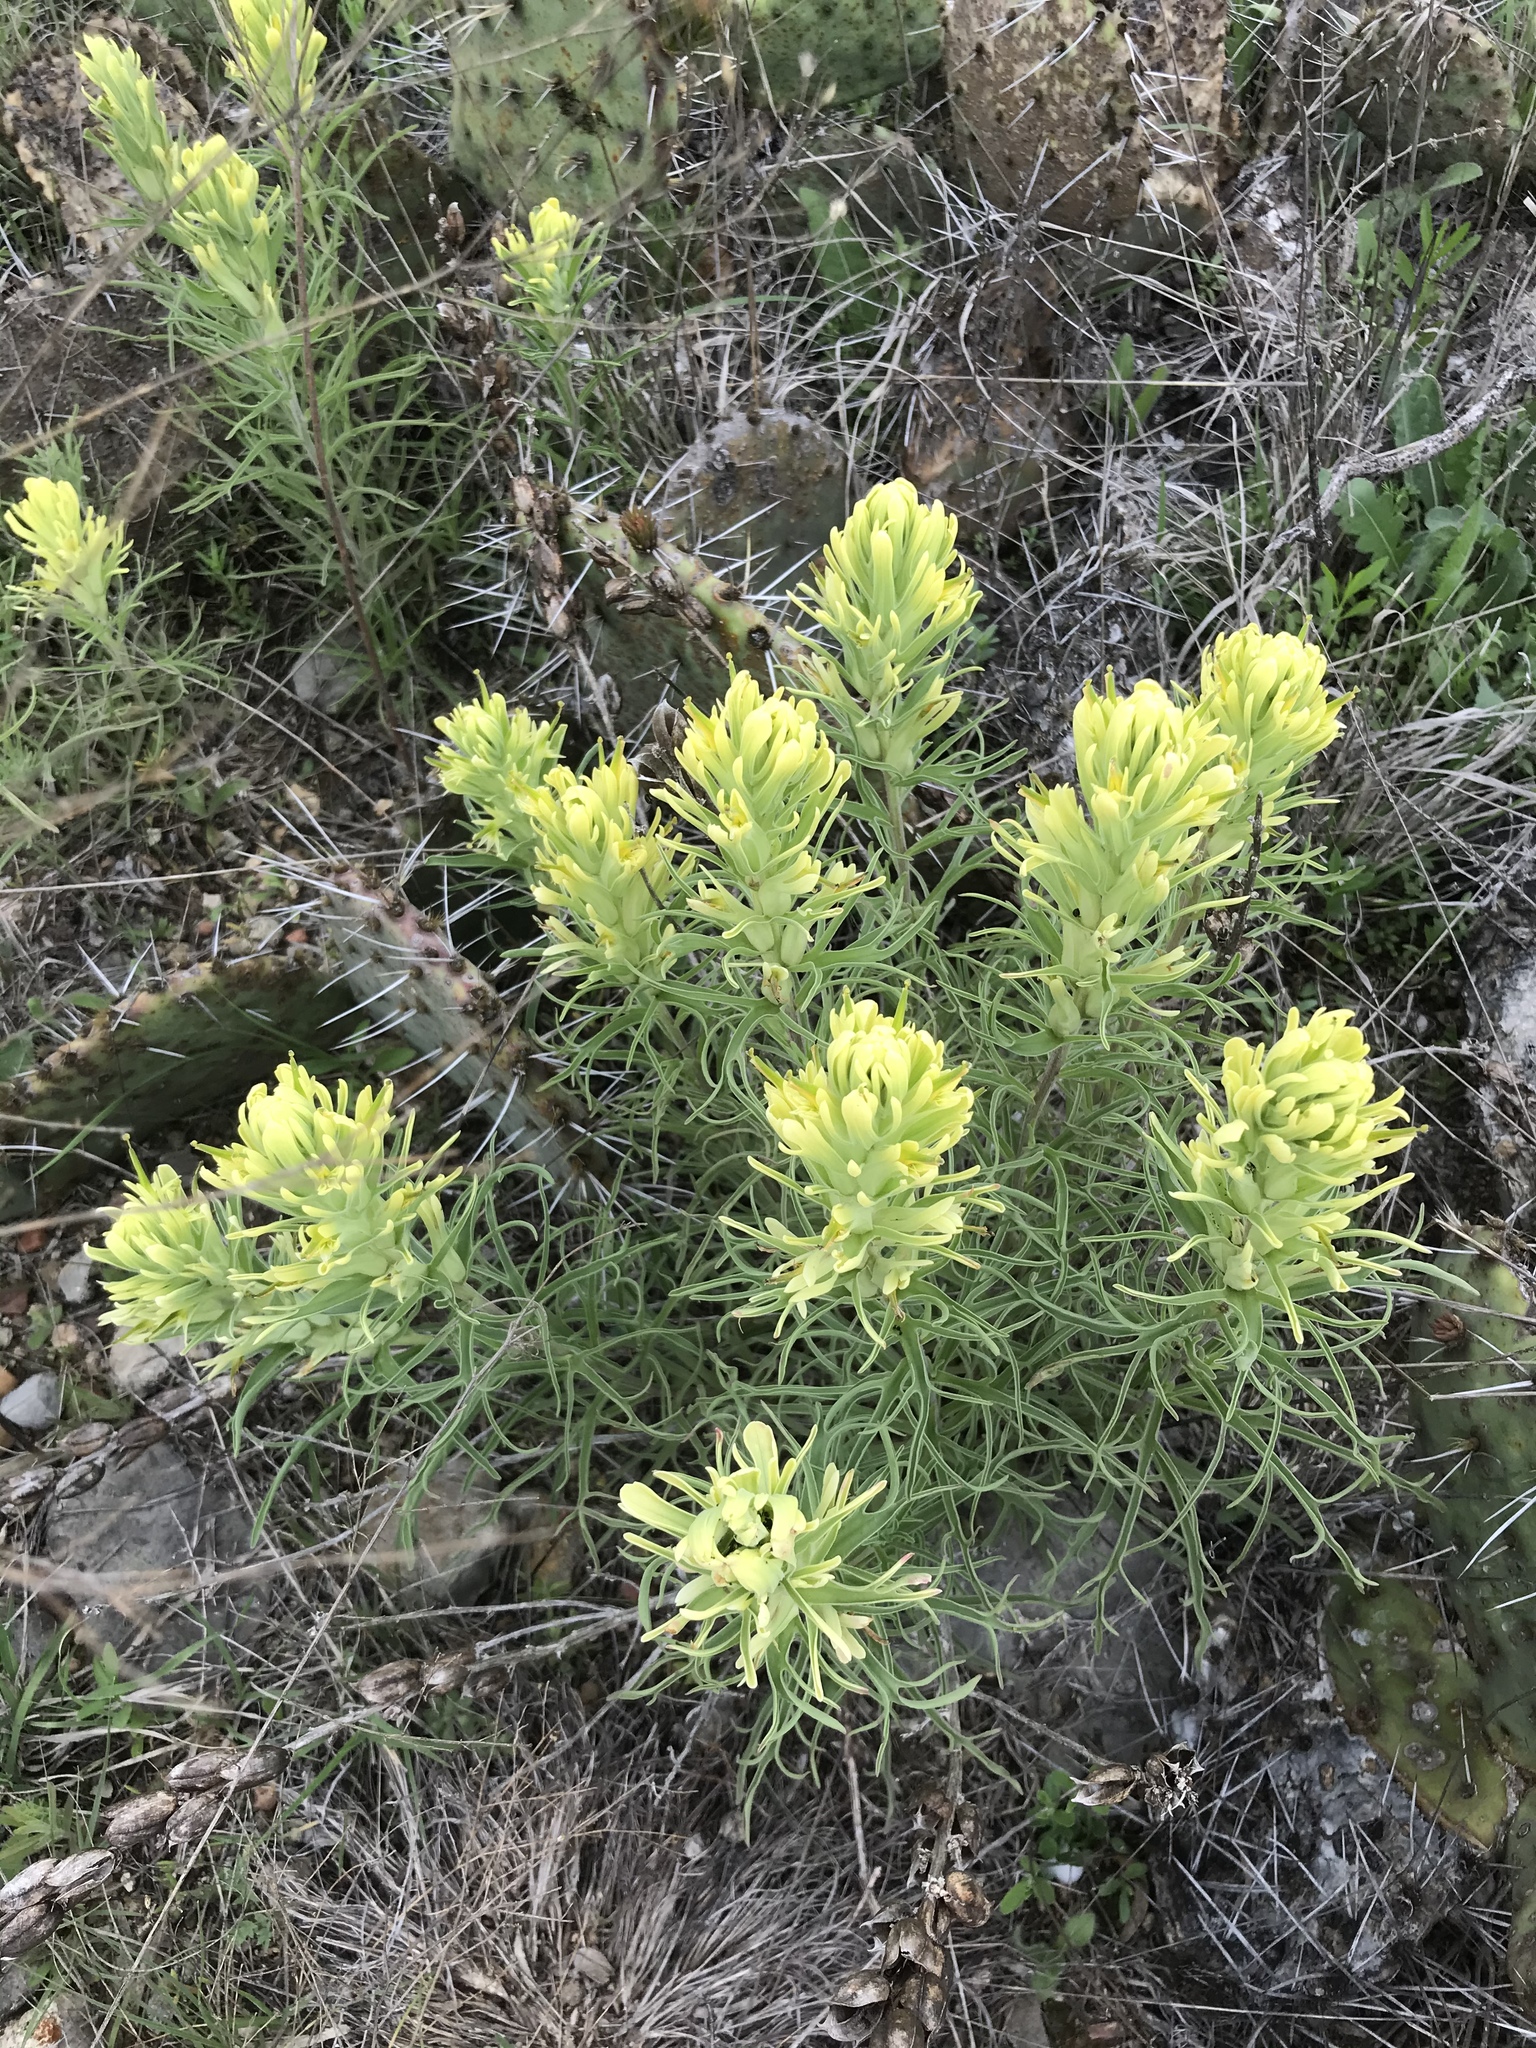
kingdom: Plantae
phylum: Tracheophyta
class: Magnoliopsida
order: Lamiales
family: Orobanchaceae
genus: Castilleja
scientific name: Castilleja citrina
